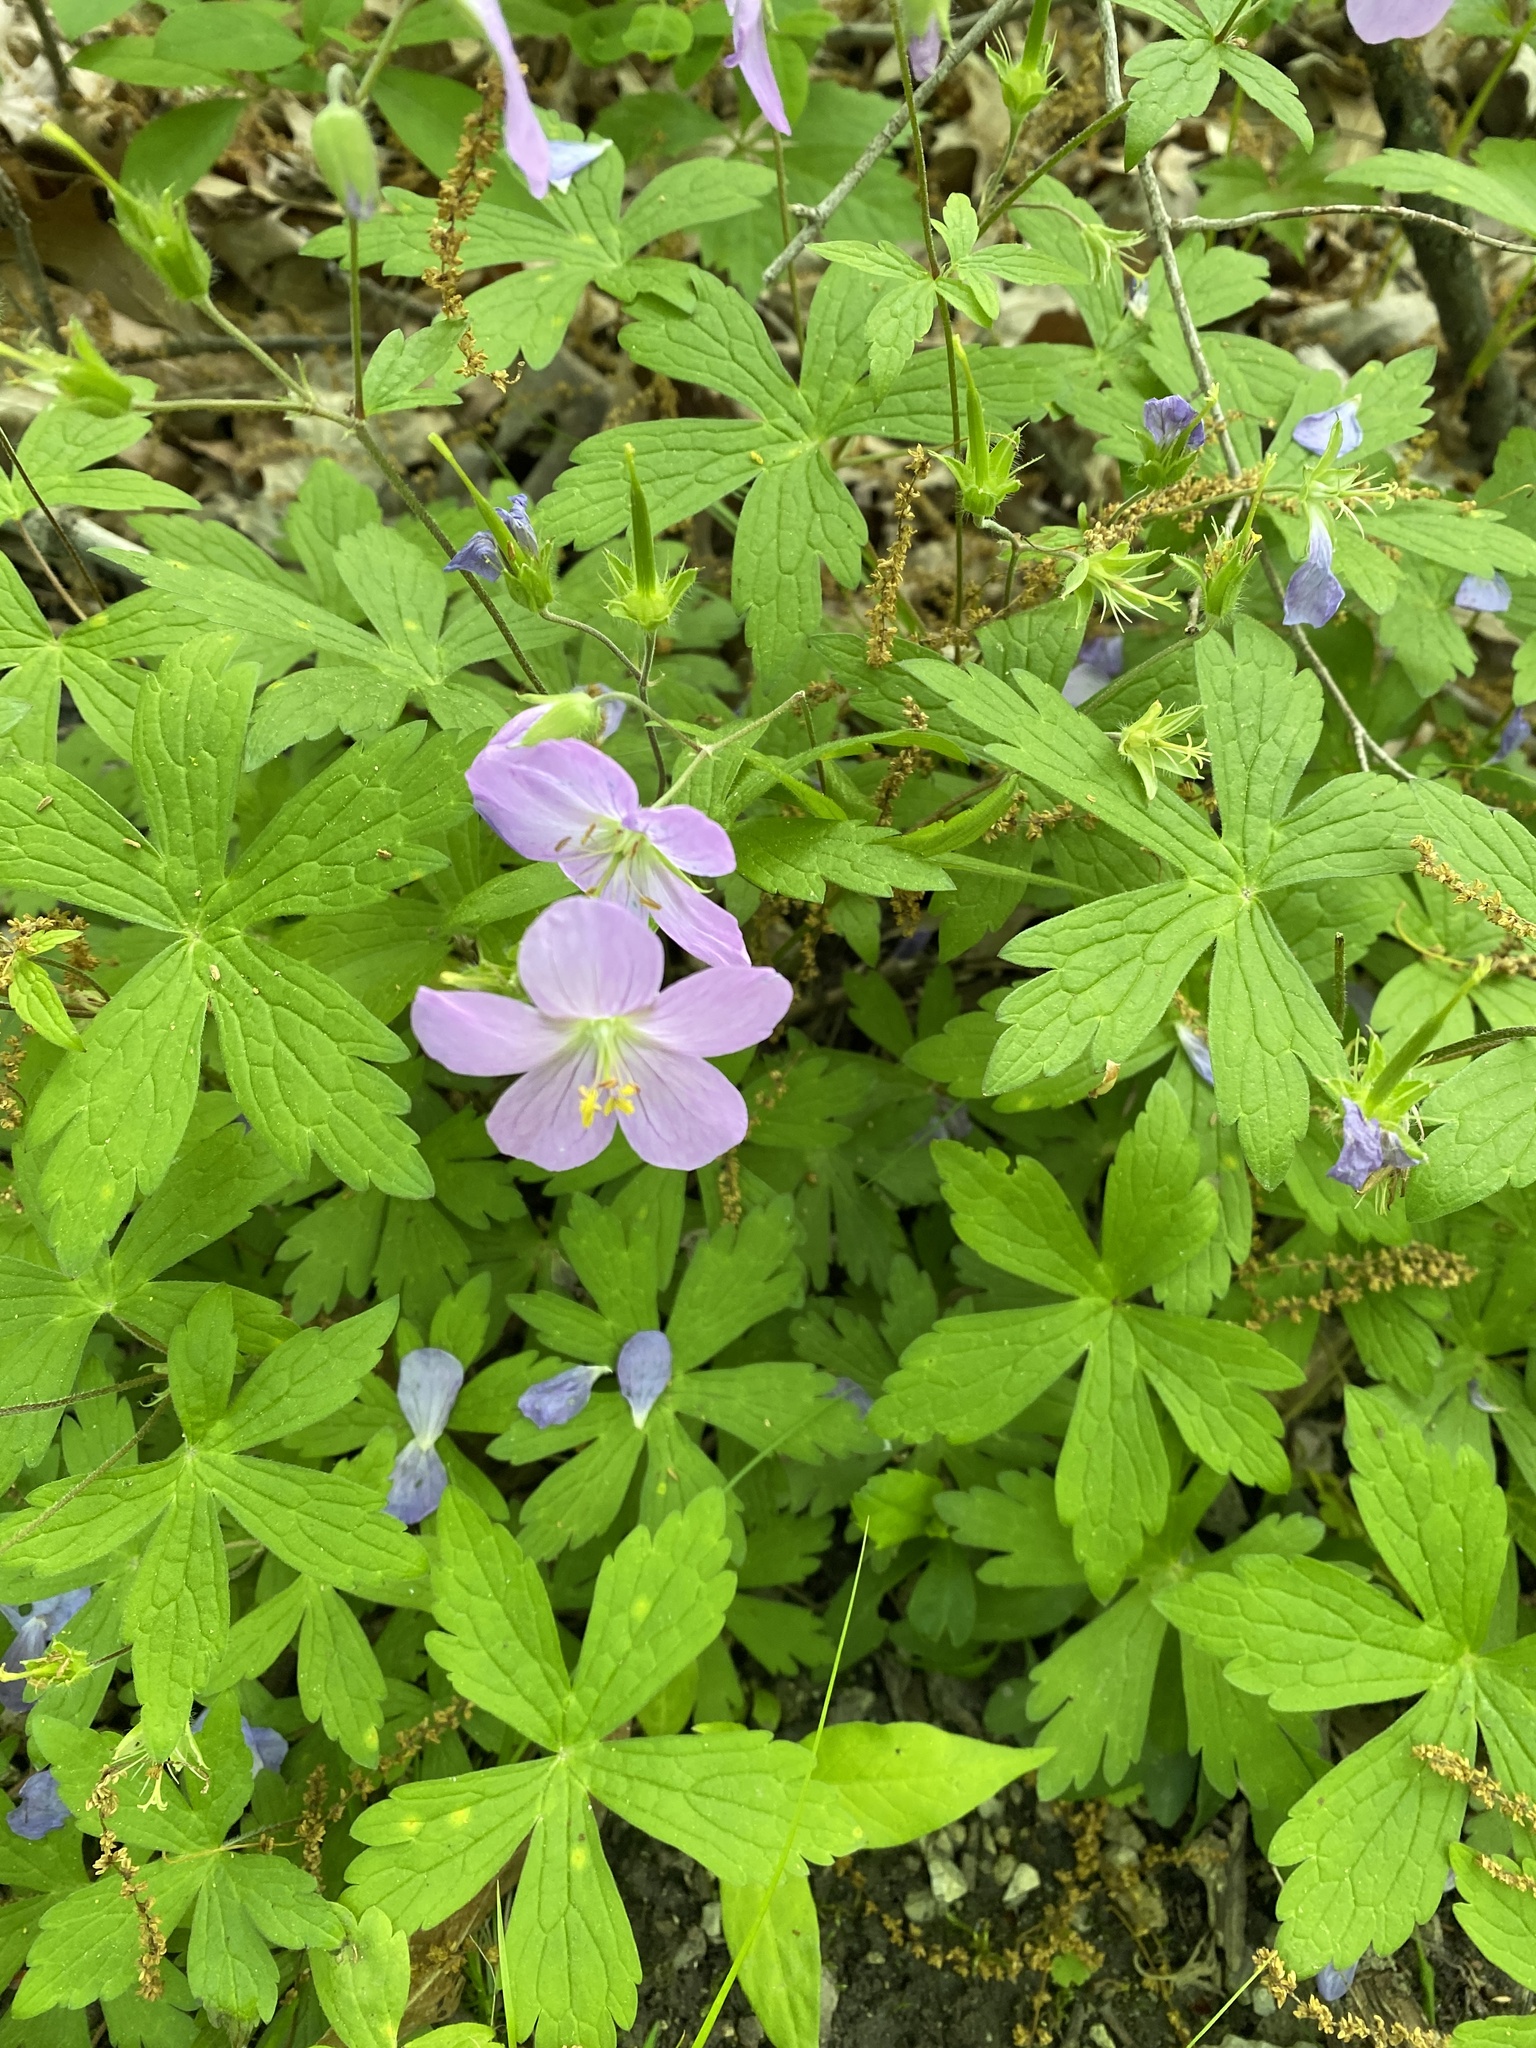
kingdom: Plantae
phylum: Tracheophyta
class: Magnoliopsida
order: Geraniales
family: Geraniaceae
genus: Geranium
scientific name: Geranium maculatum
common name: Spotted geranium
